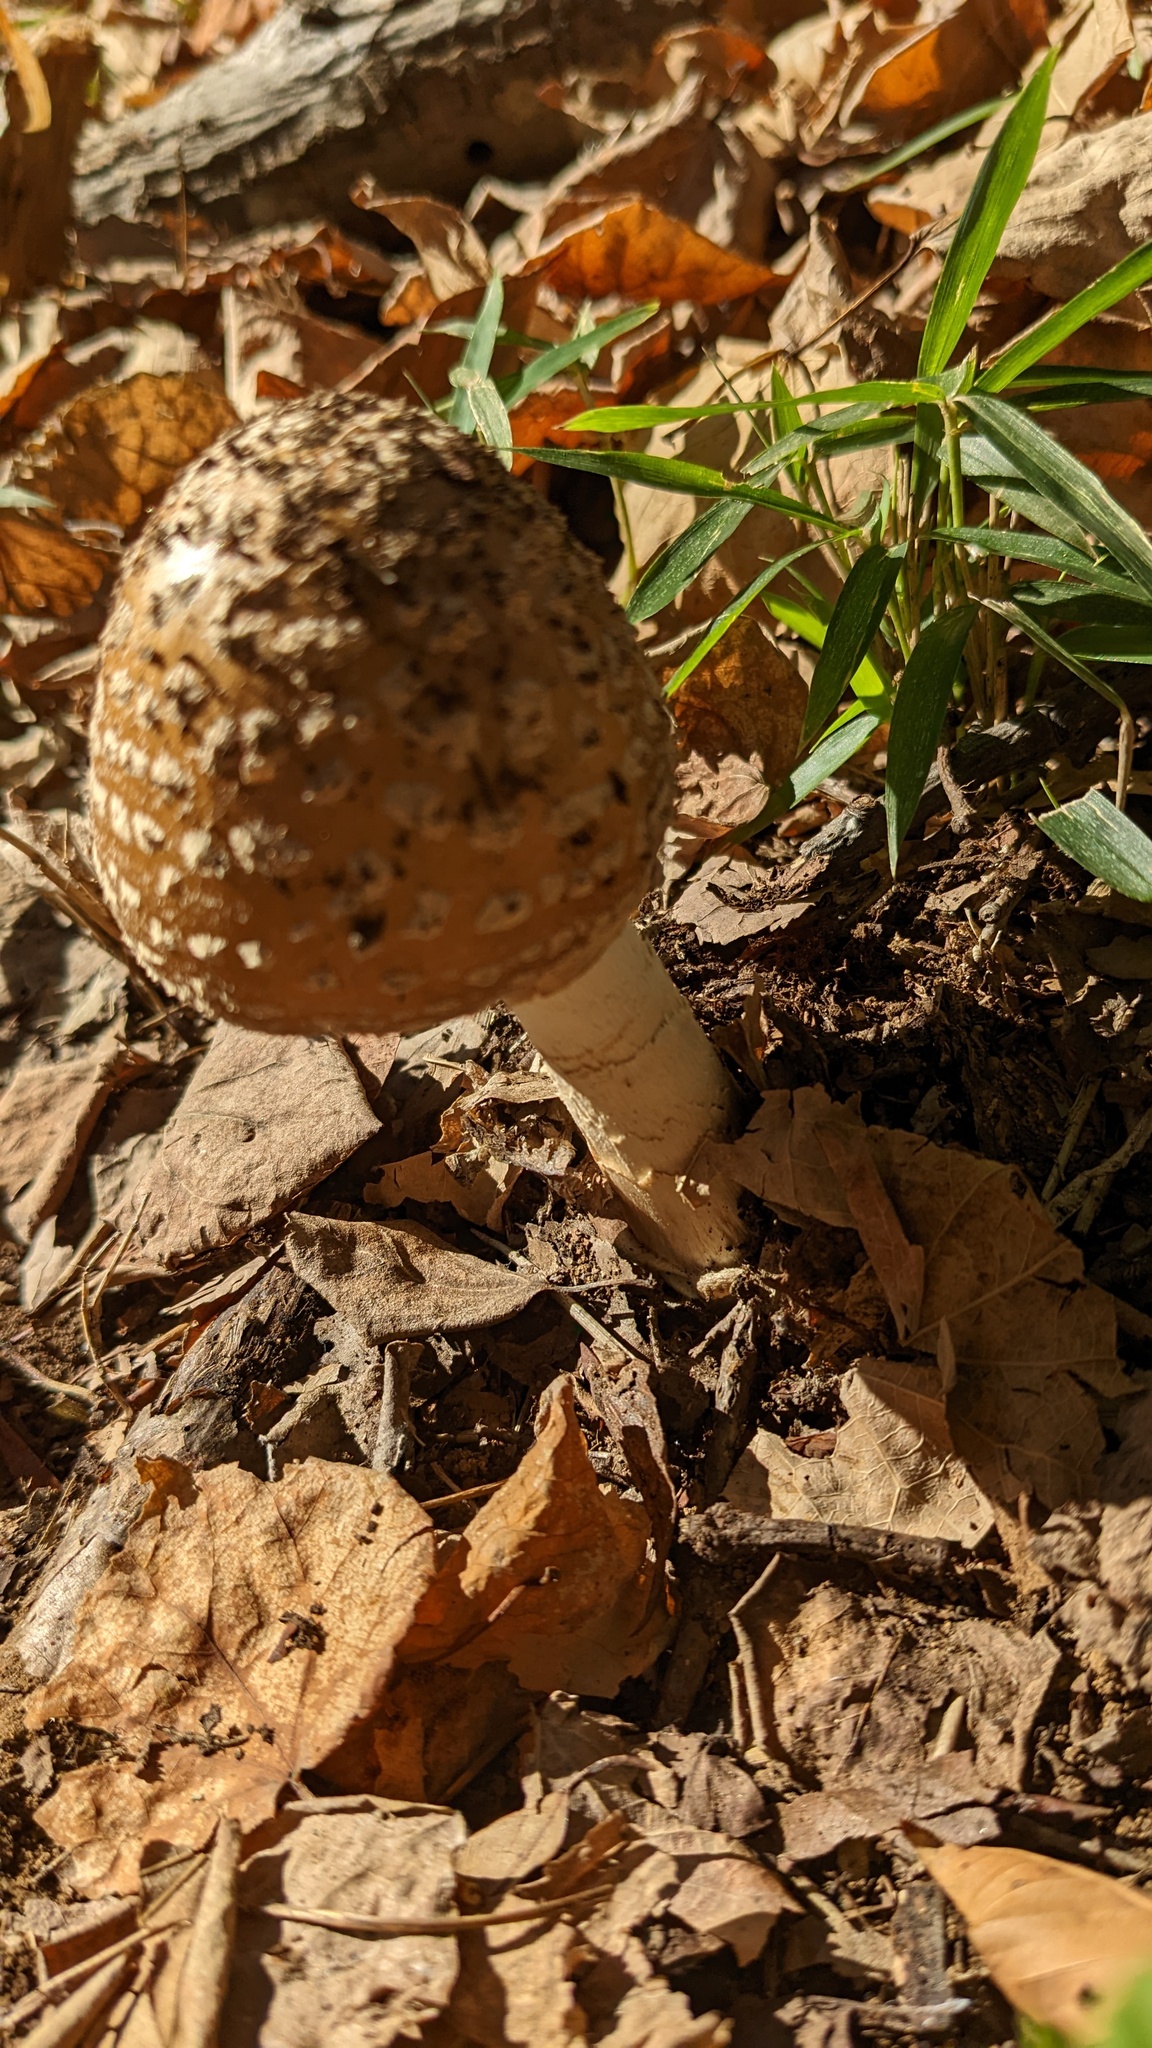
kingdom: Fungi
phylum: Basidiomycota
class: Agaricomycetes
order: Agaricales
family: Amanitaceae
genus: Amanita
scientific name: Amanita ibotengutake
